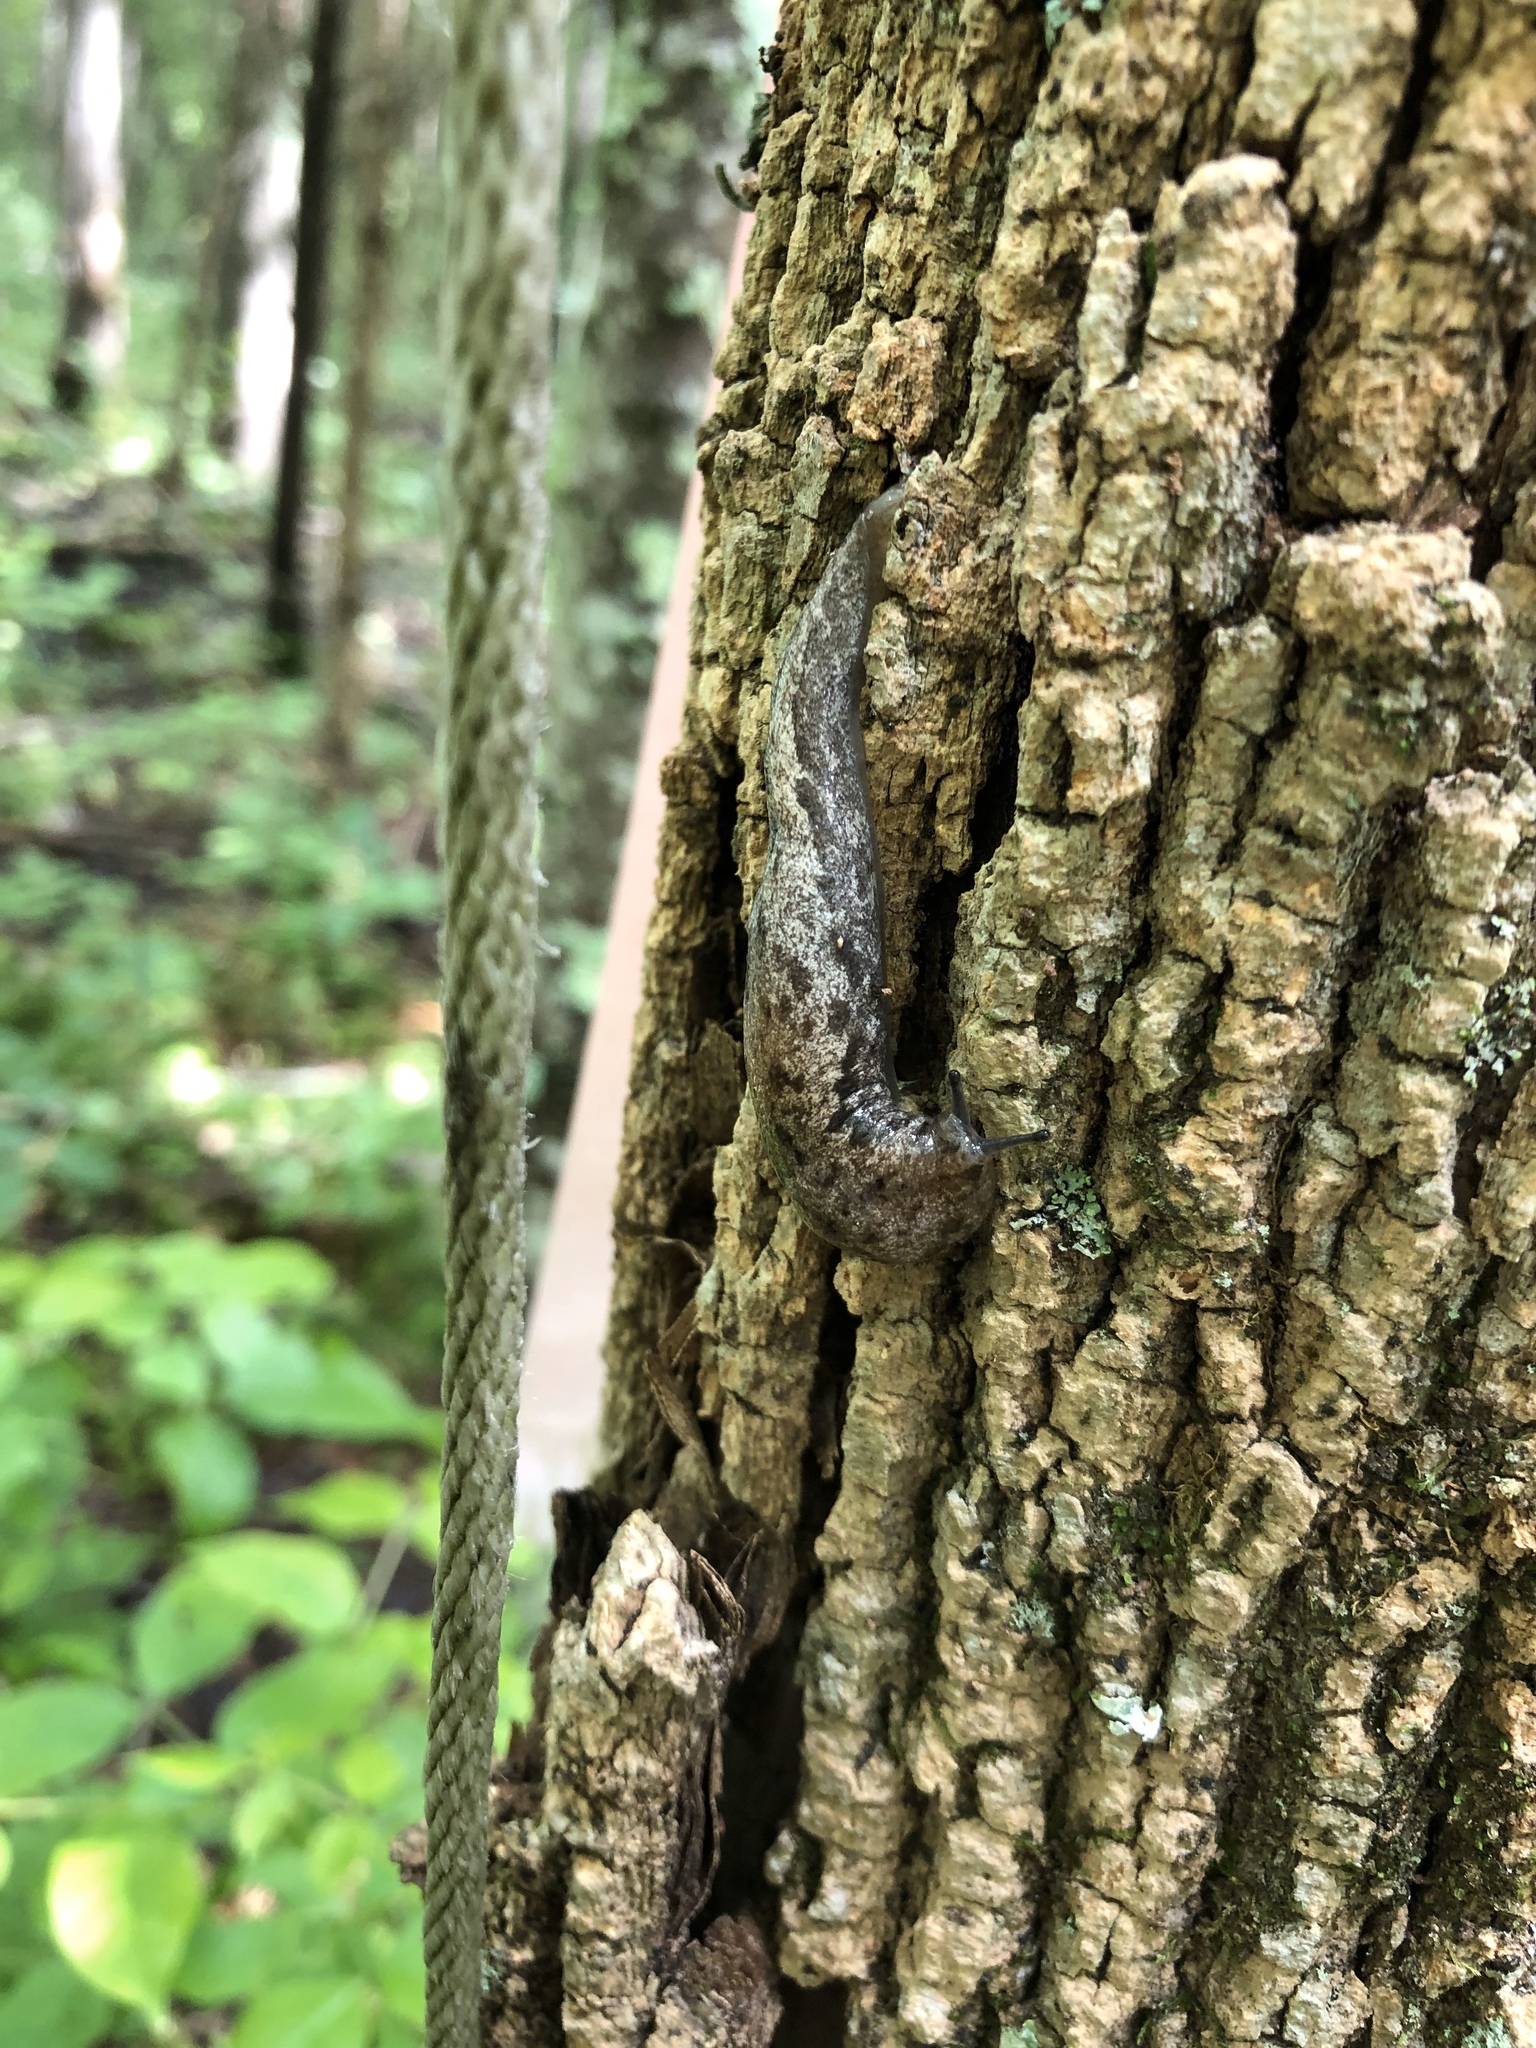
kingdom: Animalia
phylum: Mollusca
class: Gastropoda
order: Stylommatophora
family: Philomycidae
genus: Megapallifera
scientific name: Megapallifera mutabilis
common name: Changeable mantleslug
